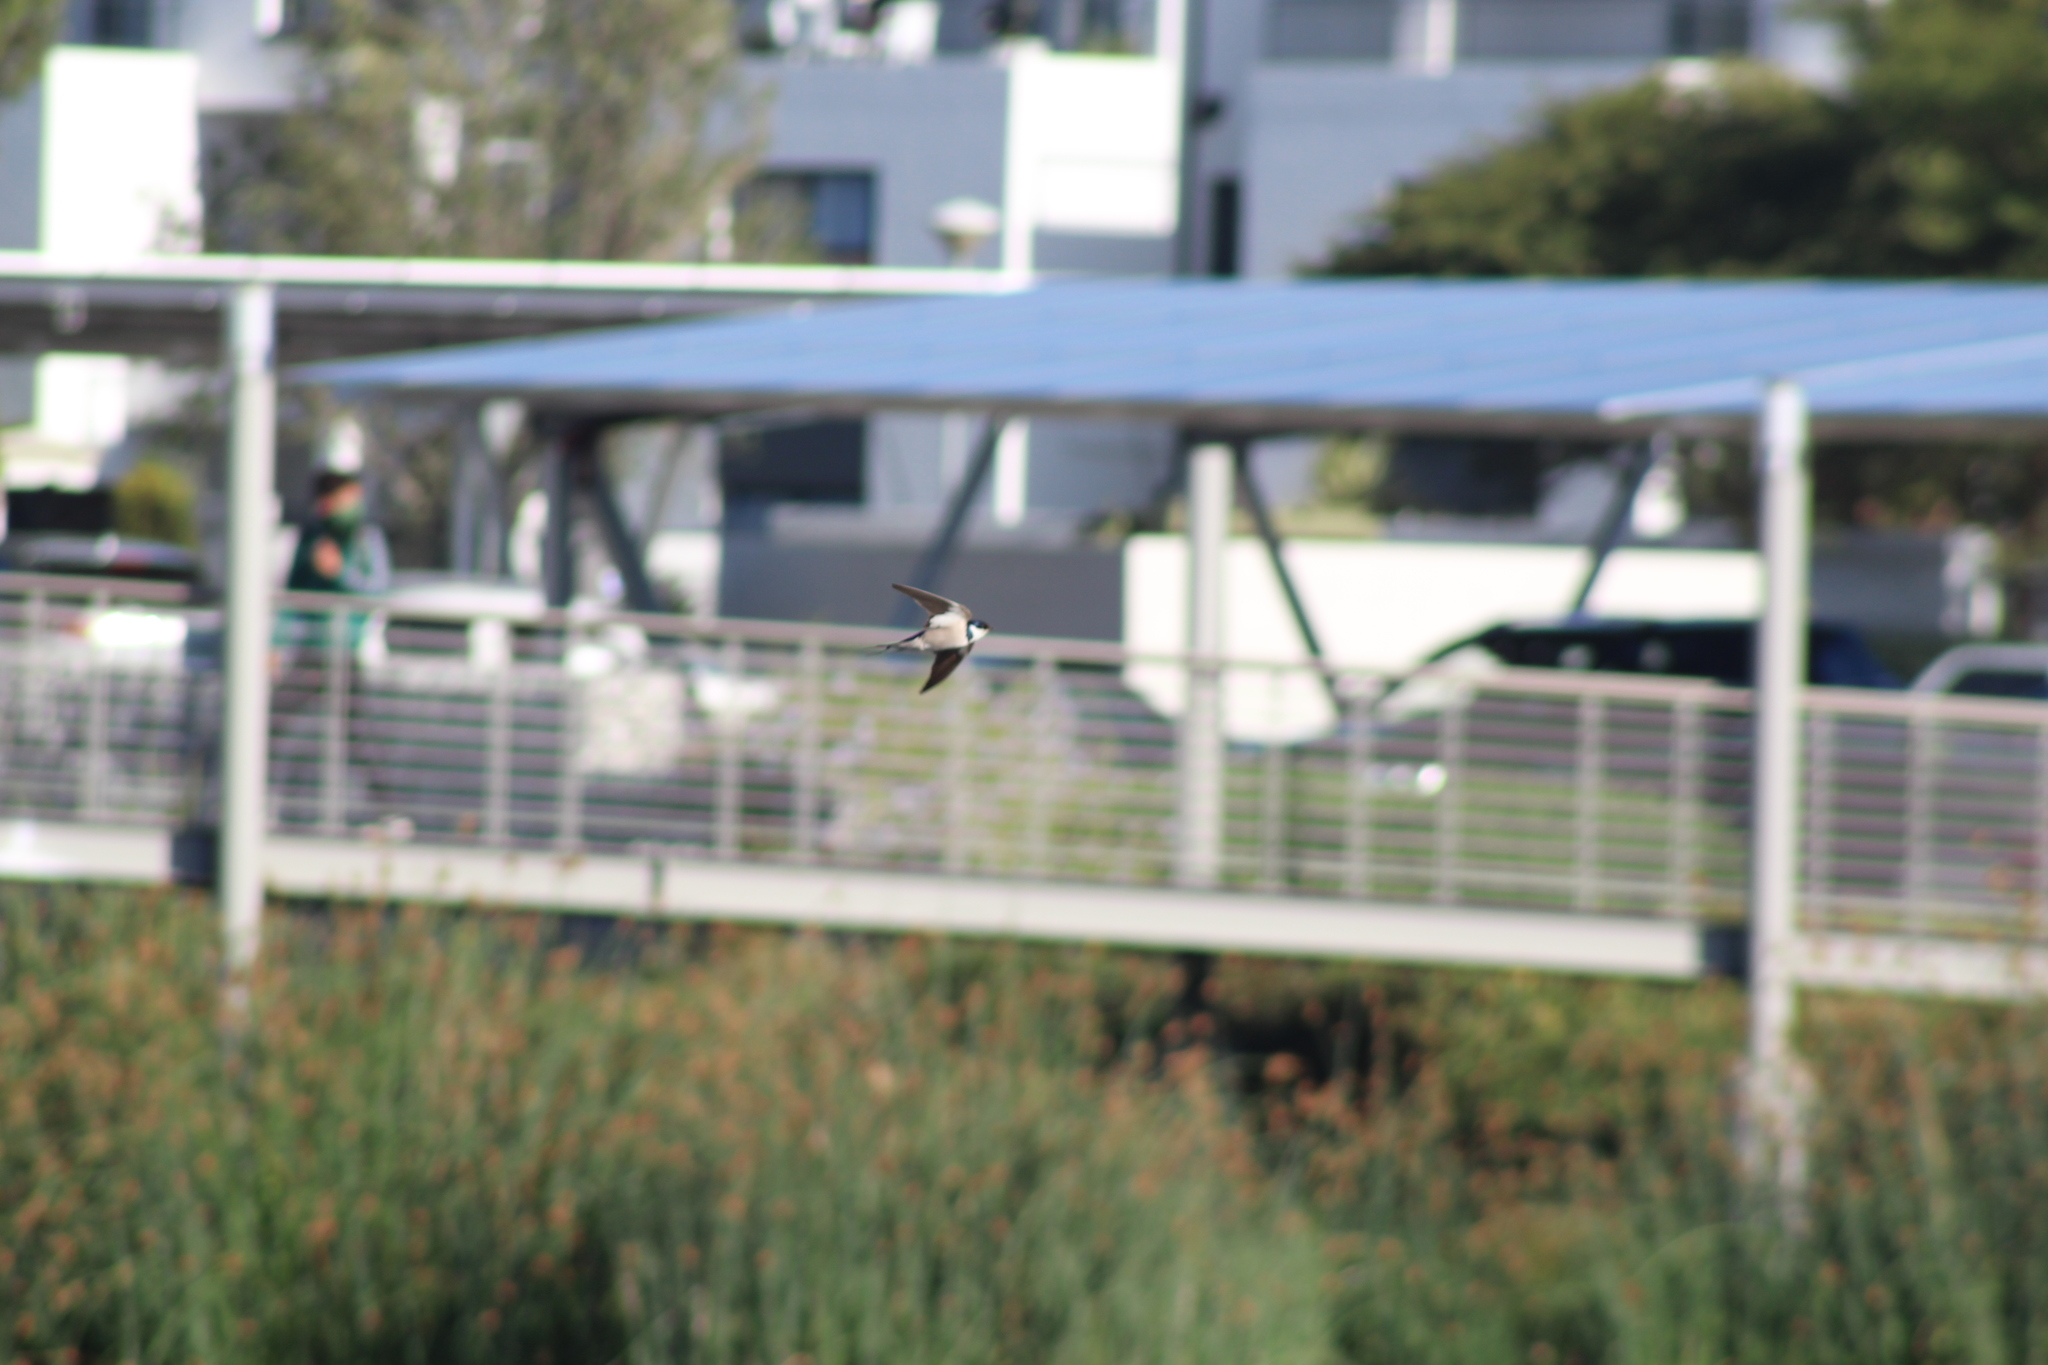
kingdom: Animalia
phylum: Chordata
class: Aves
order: Passeriformes
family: Hirundinidae
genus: Hirundo
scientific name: Hirundo albigularis
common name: White-throated swallow
